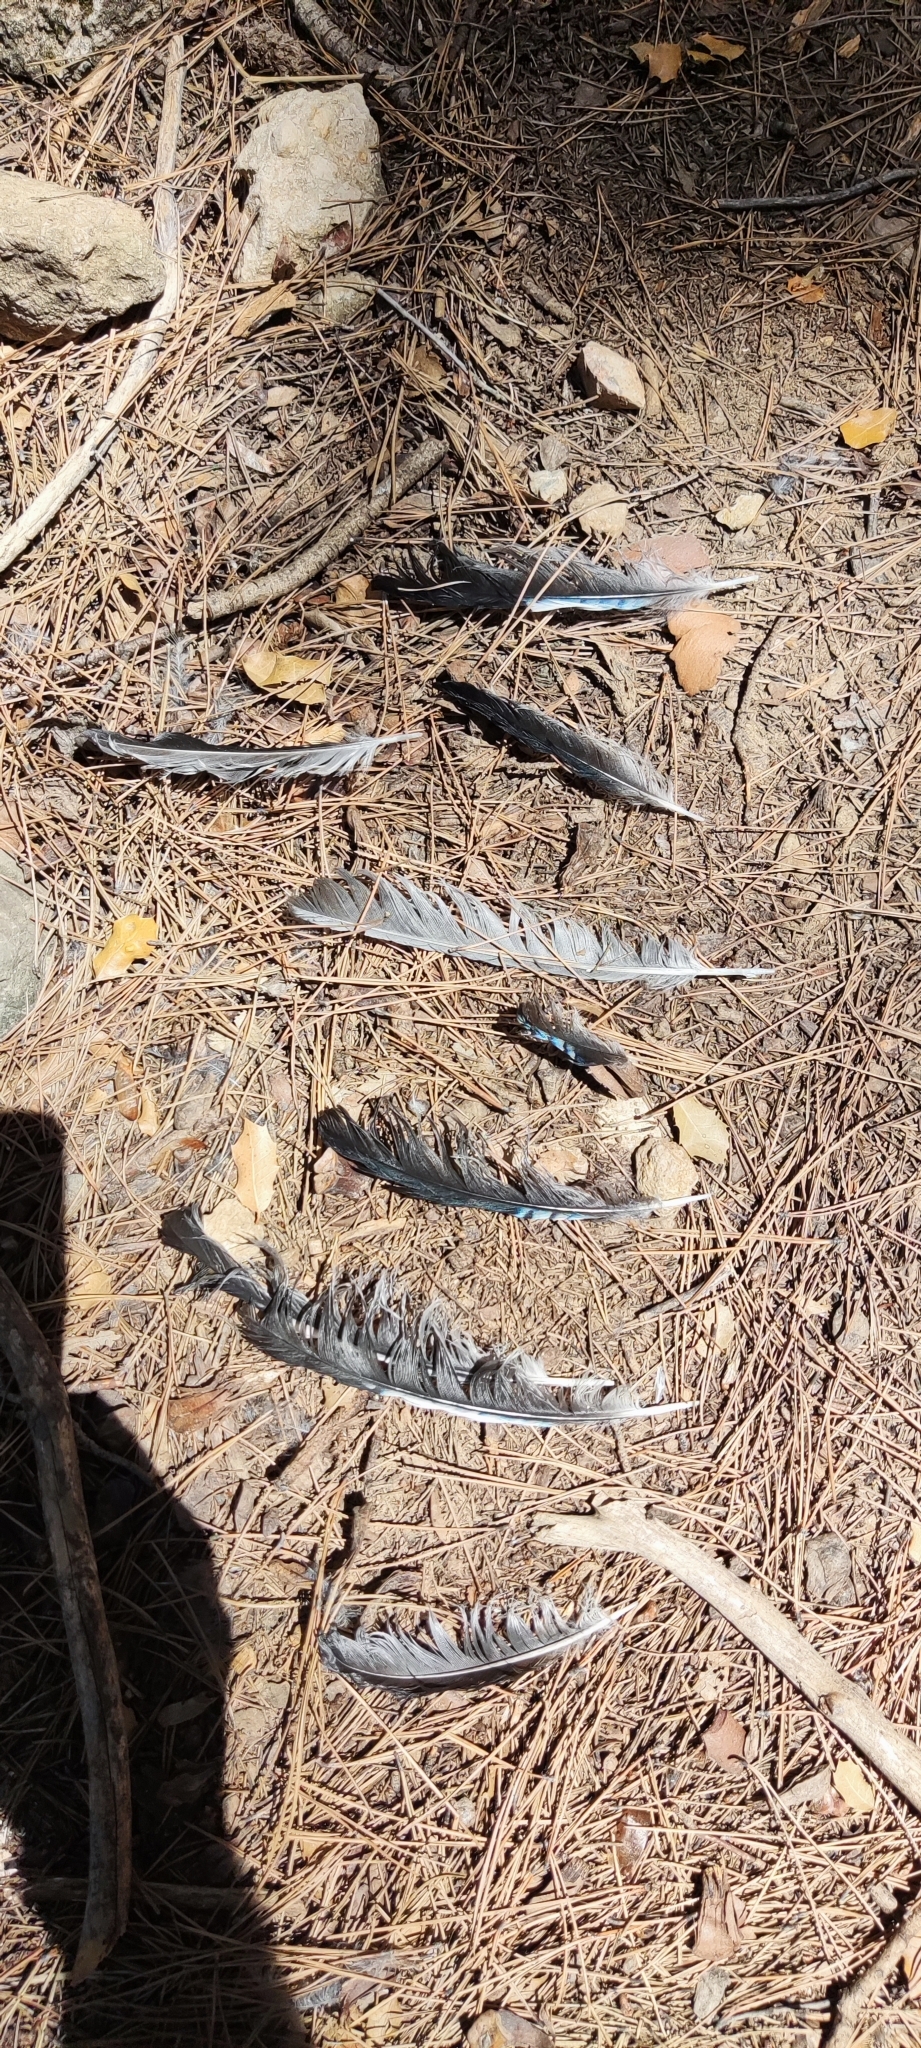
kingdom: Animalia
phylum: Chordata
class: Aves
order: Passeriformes
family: Corvidae
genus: Garrulus
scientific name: Garrulus glandarius
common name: Eurasian jay
